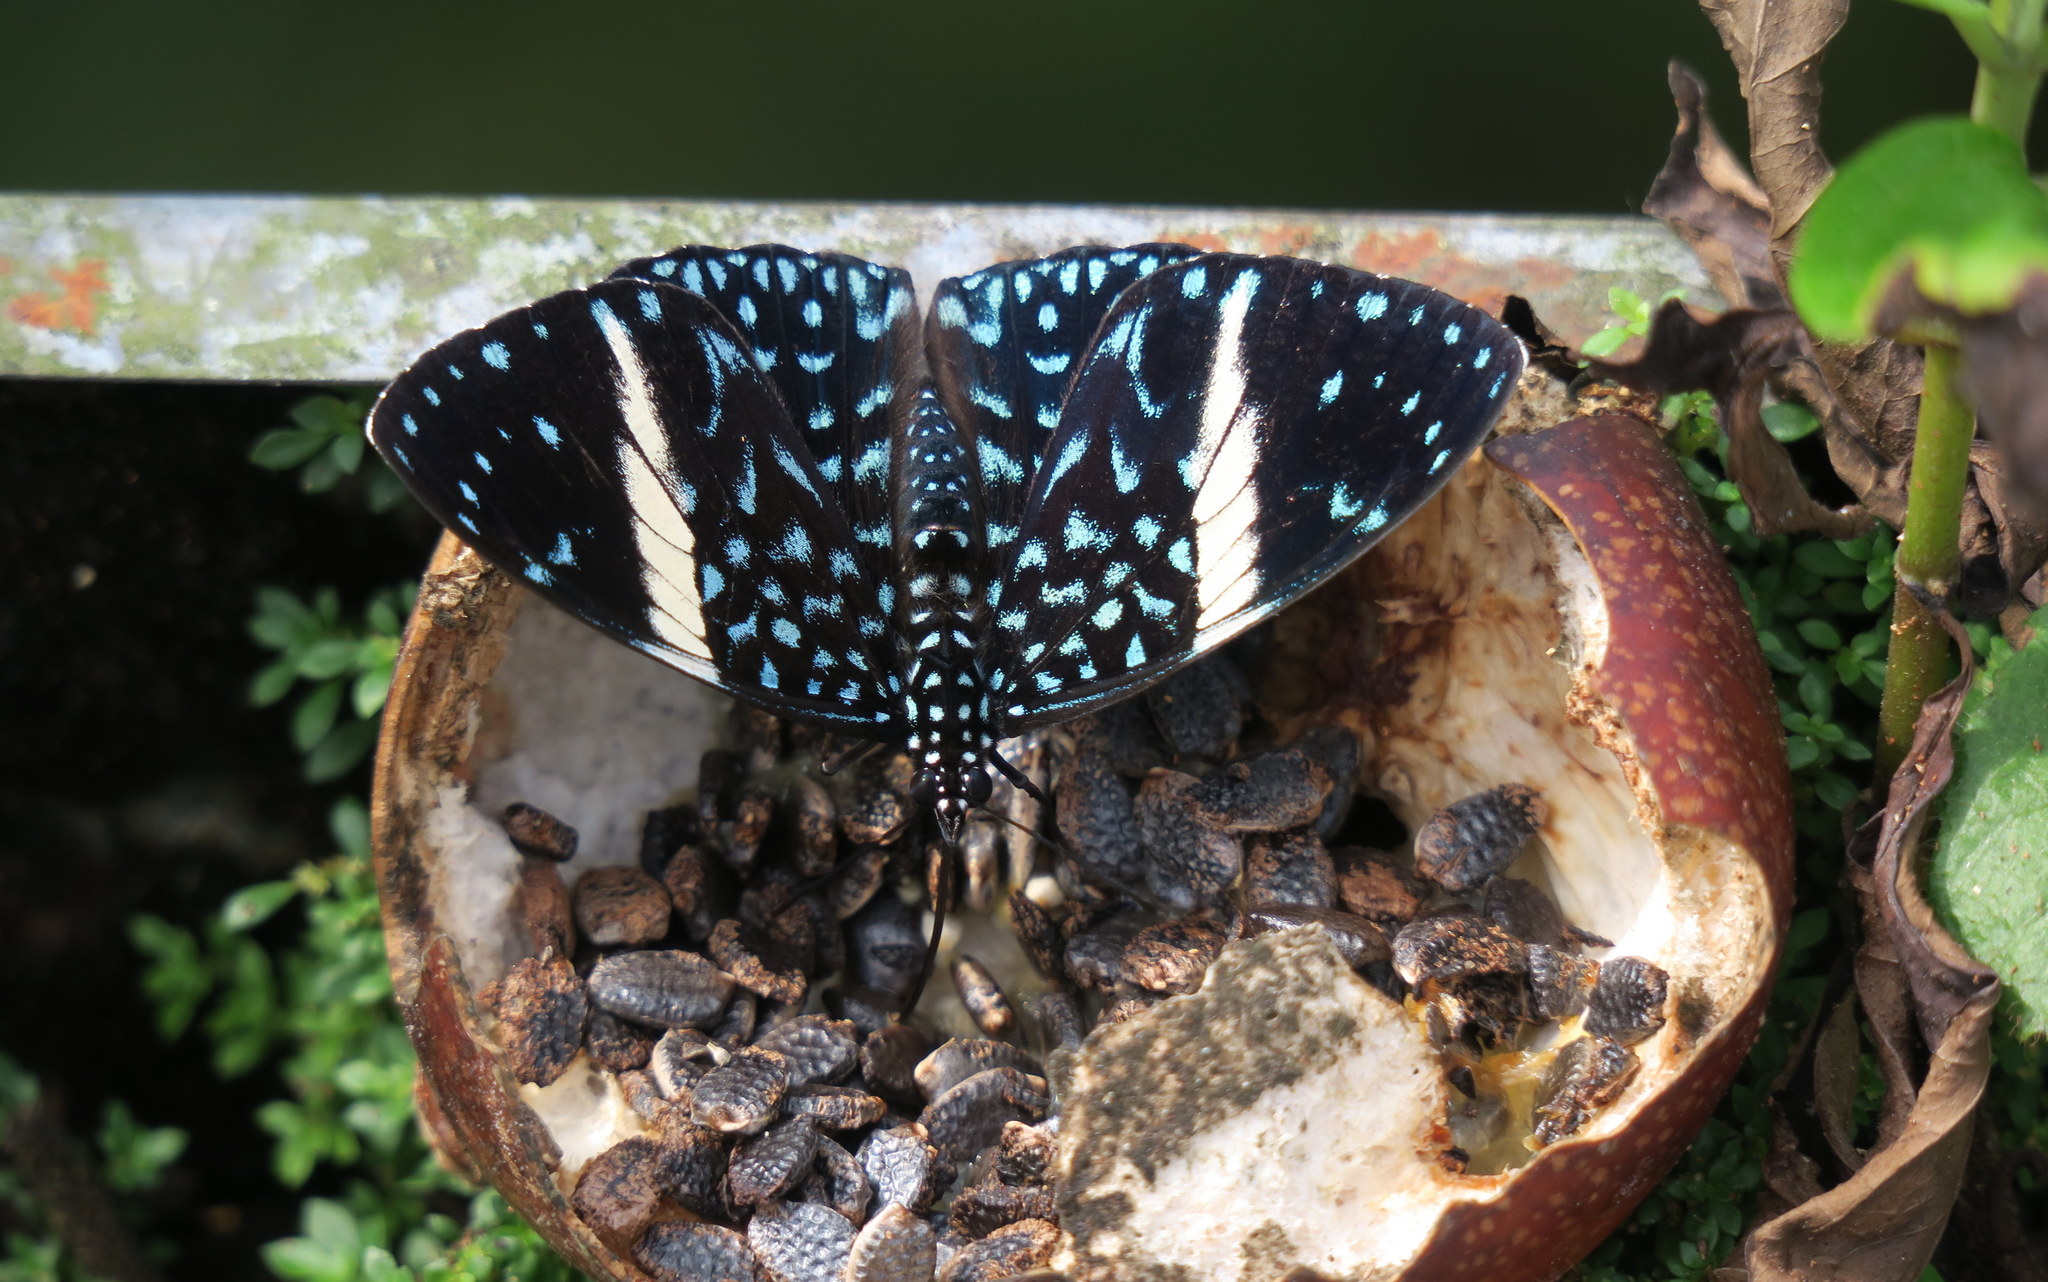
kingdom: Animalia
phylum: Arthropoda
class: Insecta
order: Lepidoptera
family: Nymphalidae
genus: Hamadryas
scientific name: Hamadryas laodamia
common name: Starry night cracker
